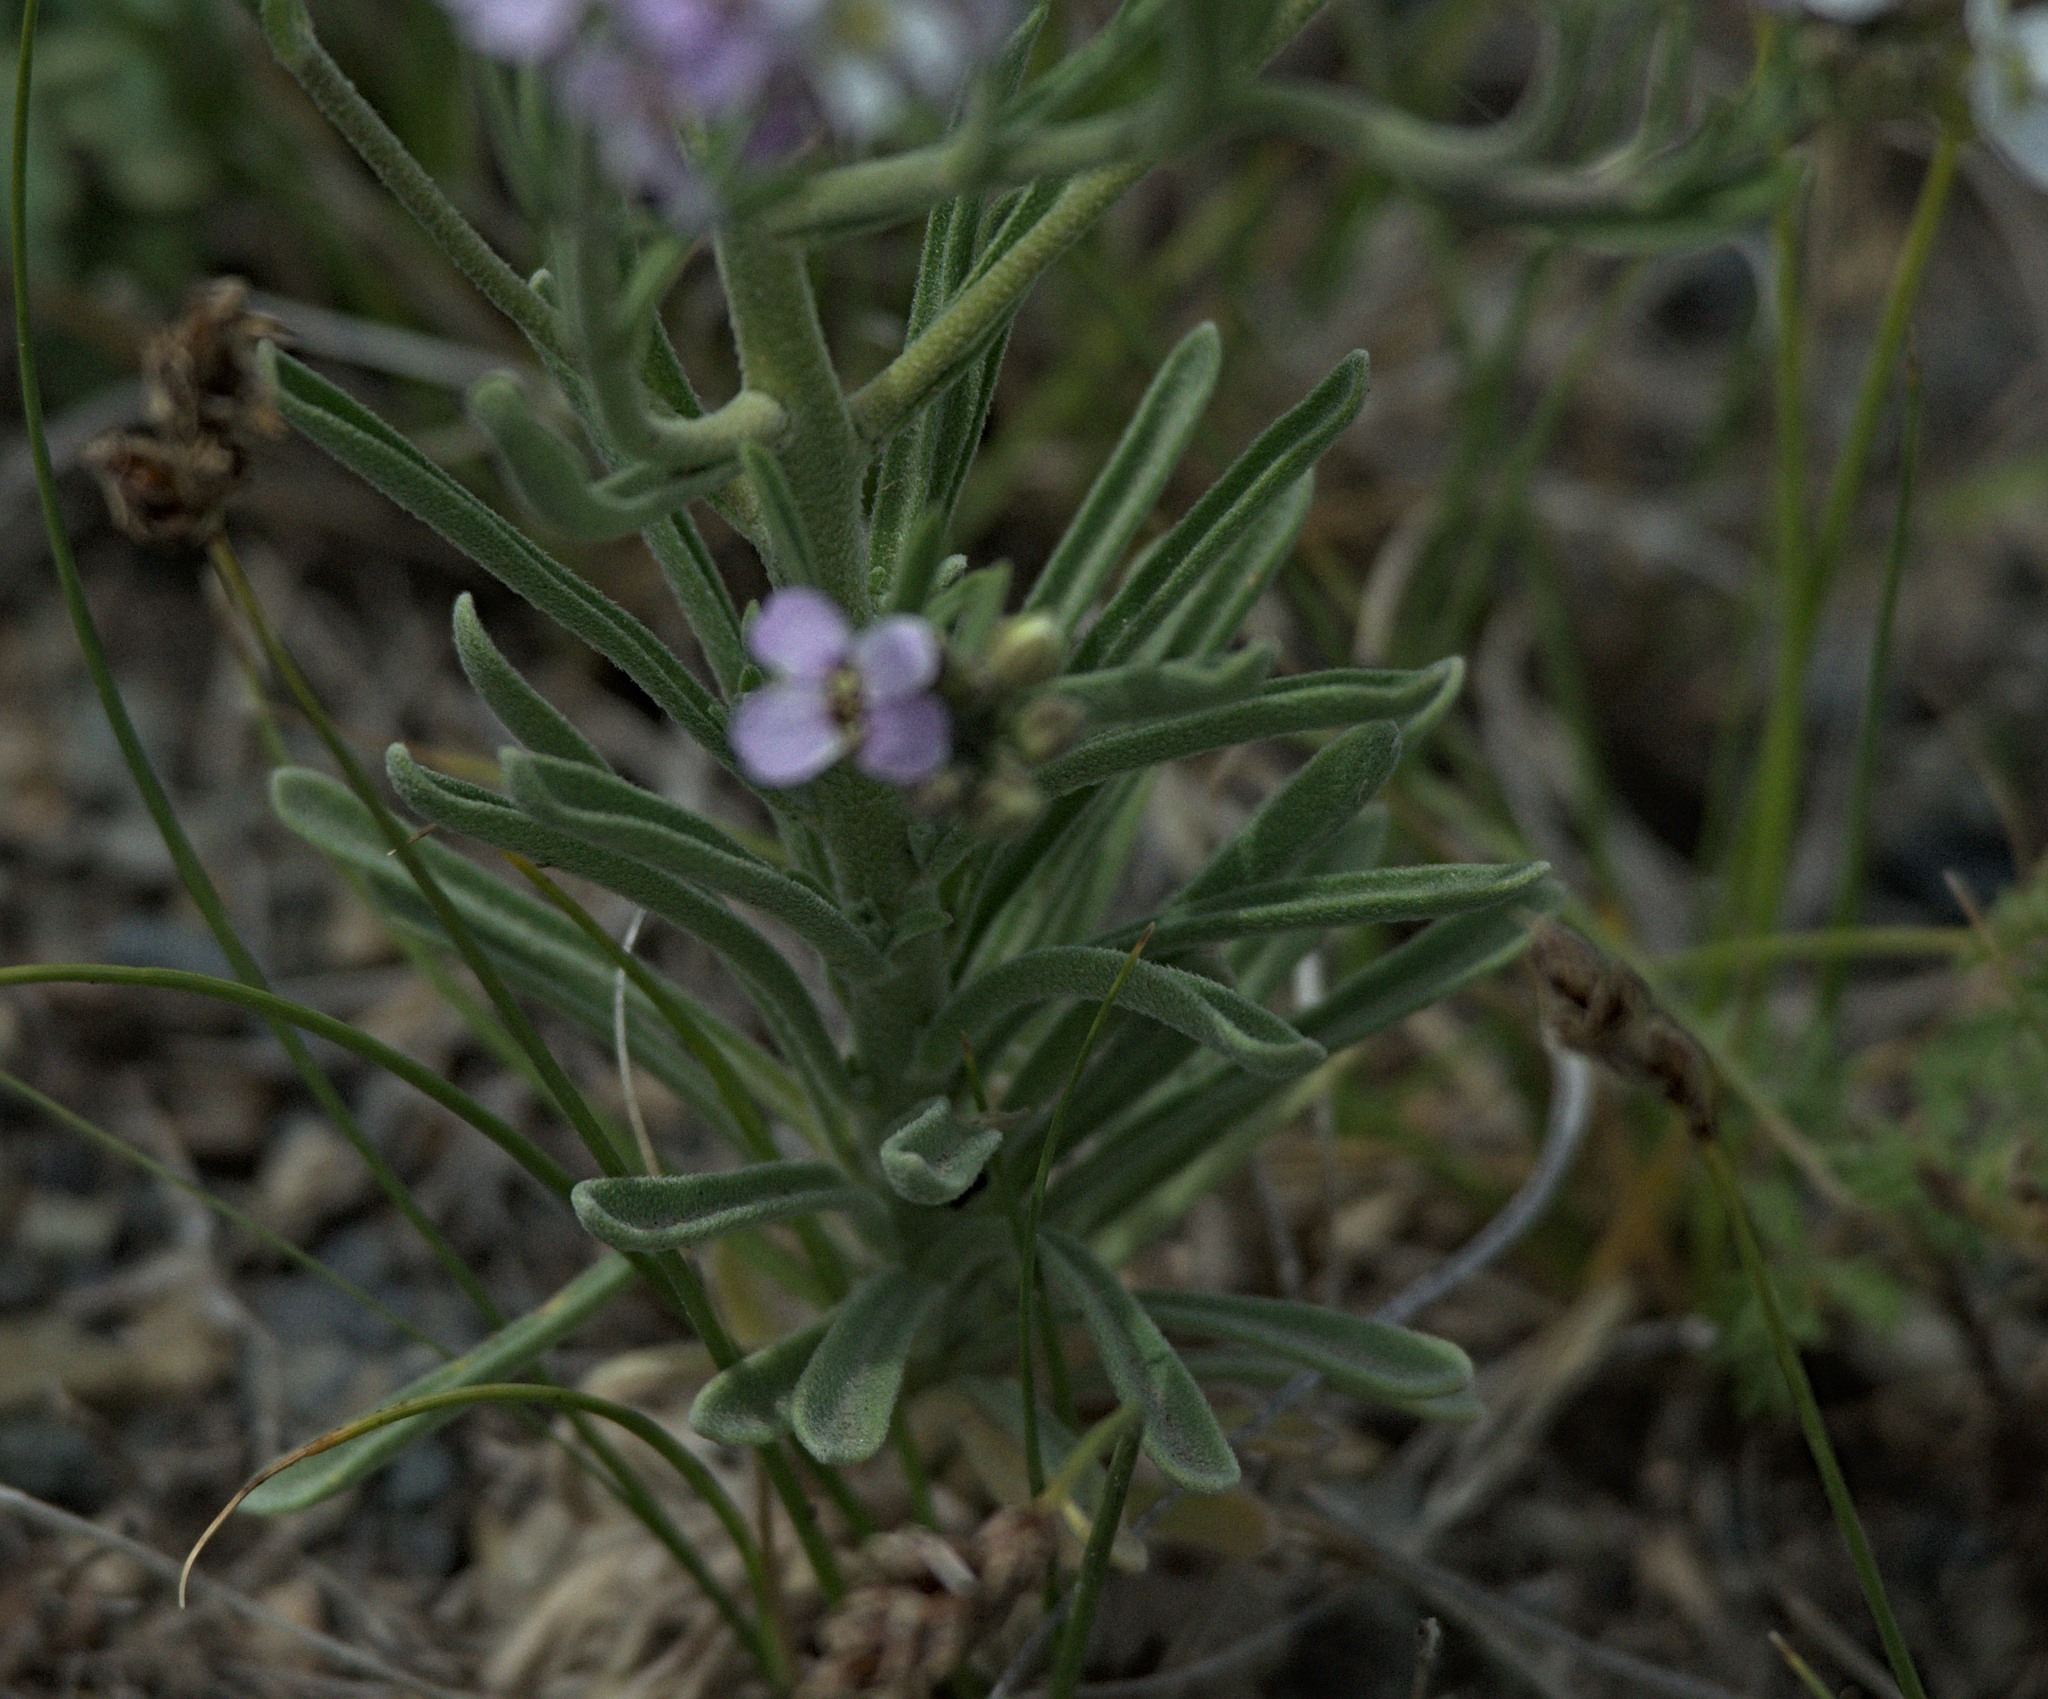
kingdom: Plantae
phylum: Tracheophyta
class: Magnoliopsida
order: Brassicales
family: Brassicaceae
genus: Stevenia
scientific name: Stevenia incarnata
